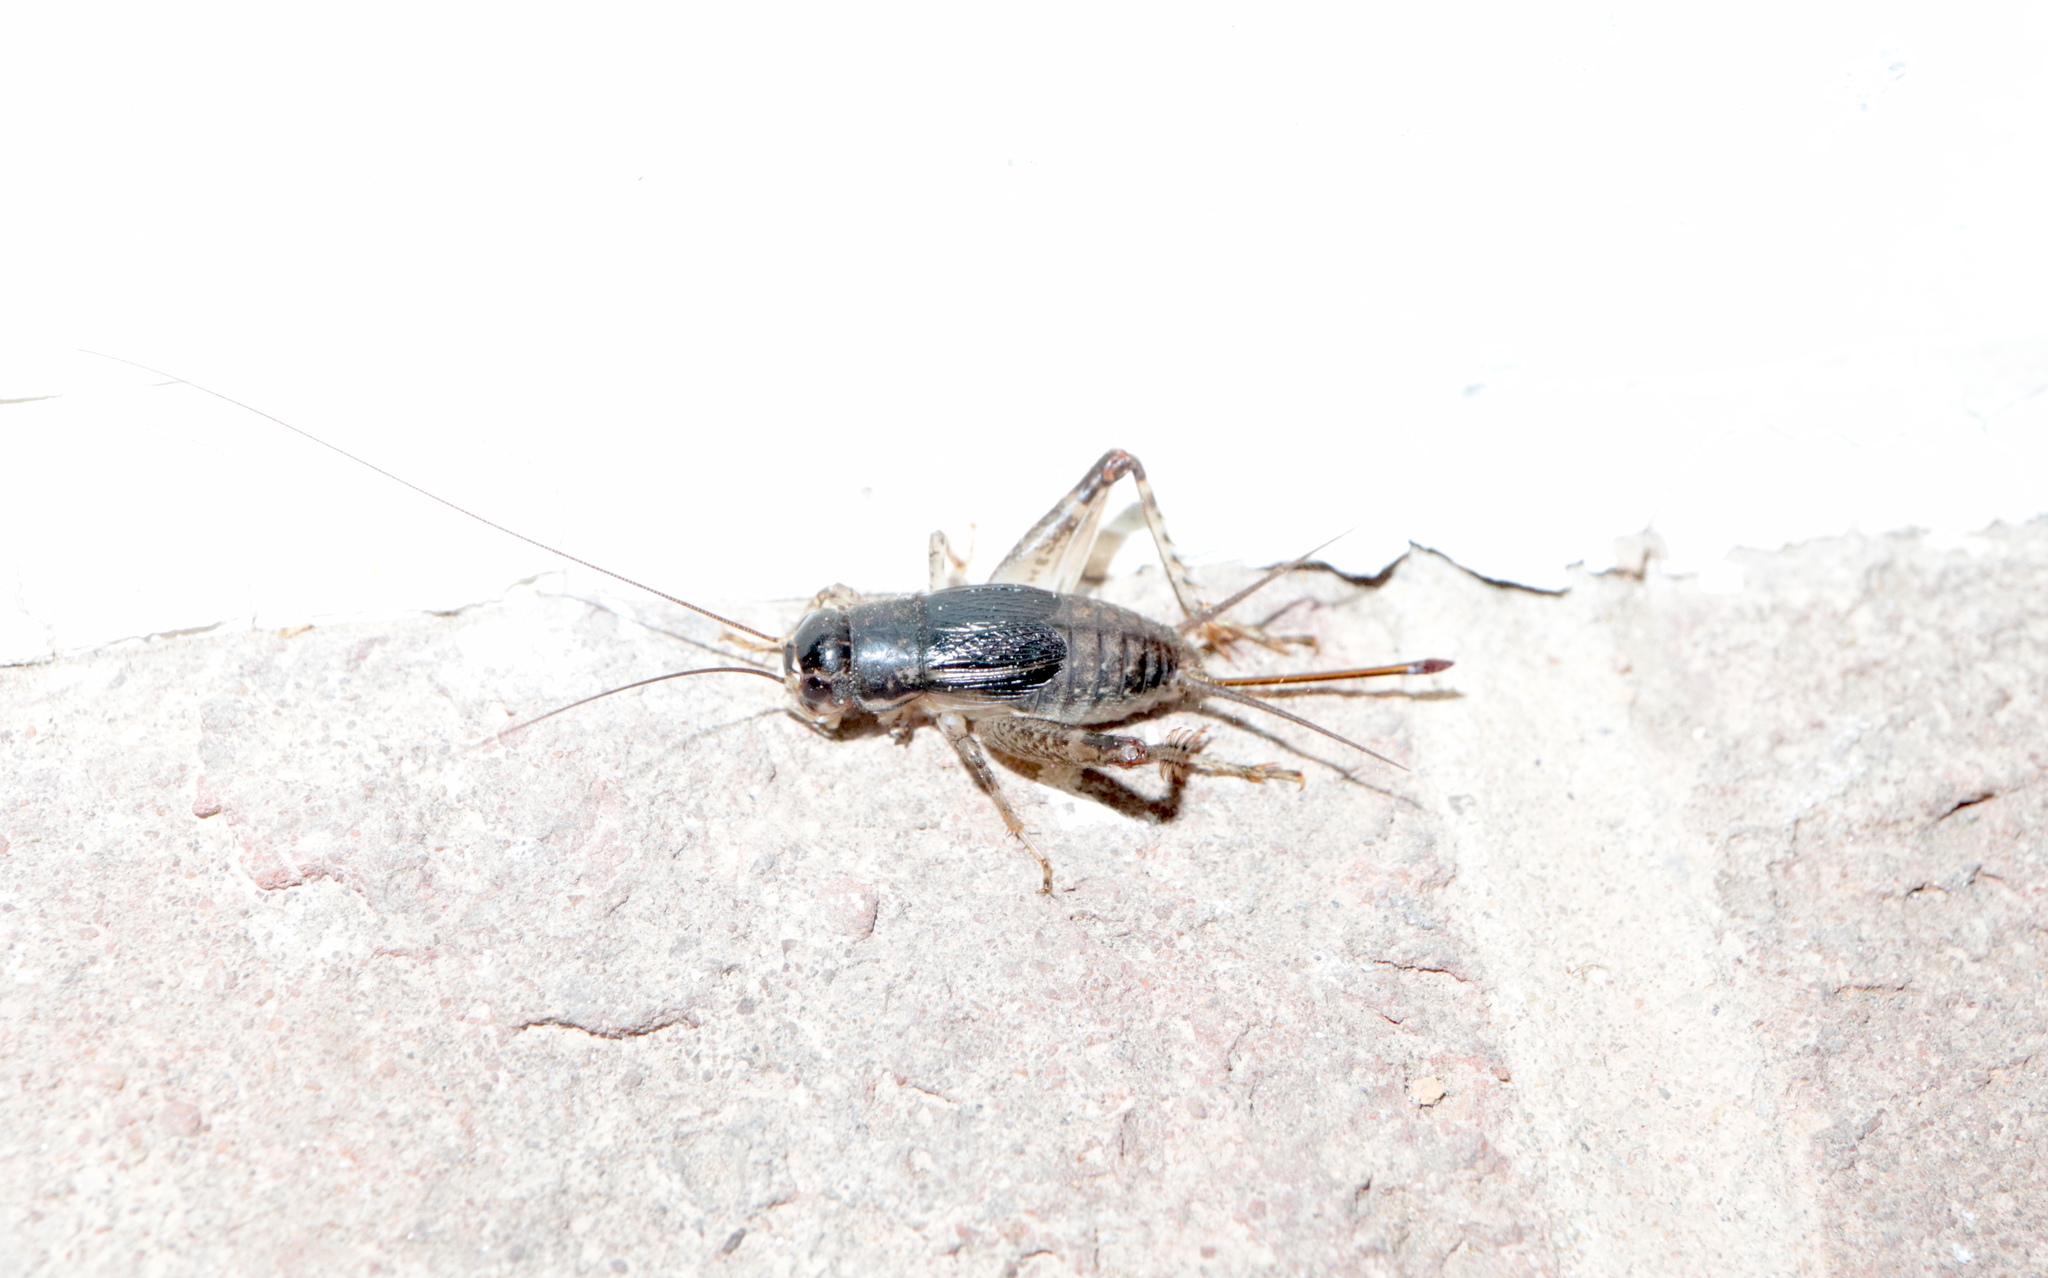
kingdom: Animalia
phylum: Arthropoda
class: Insecta
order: Orthoptera
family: Gryllidae
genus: Velarifictorus
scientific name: Velarifictorus micado
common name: Japanese burrowing cricket
